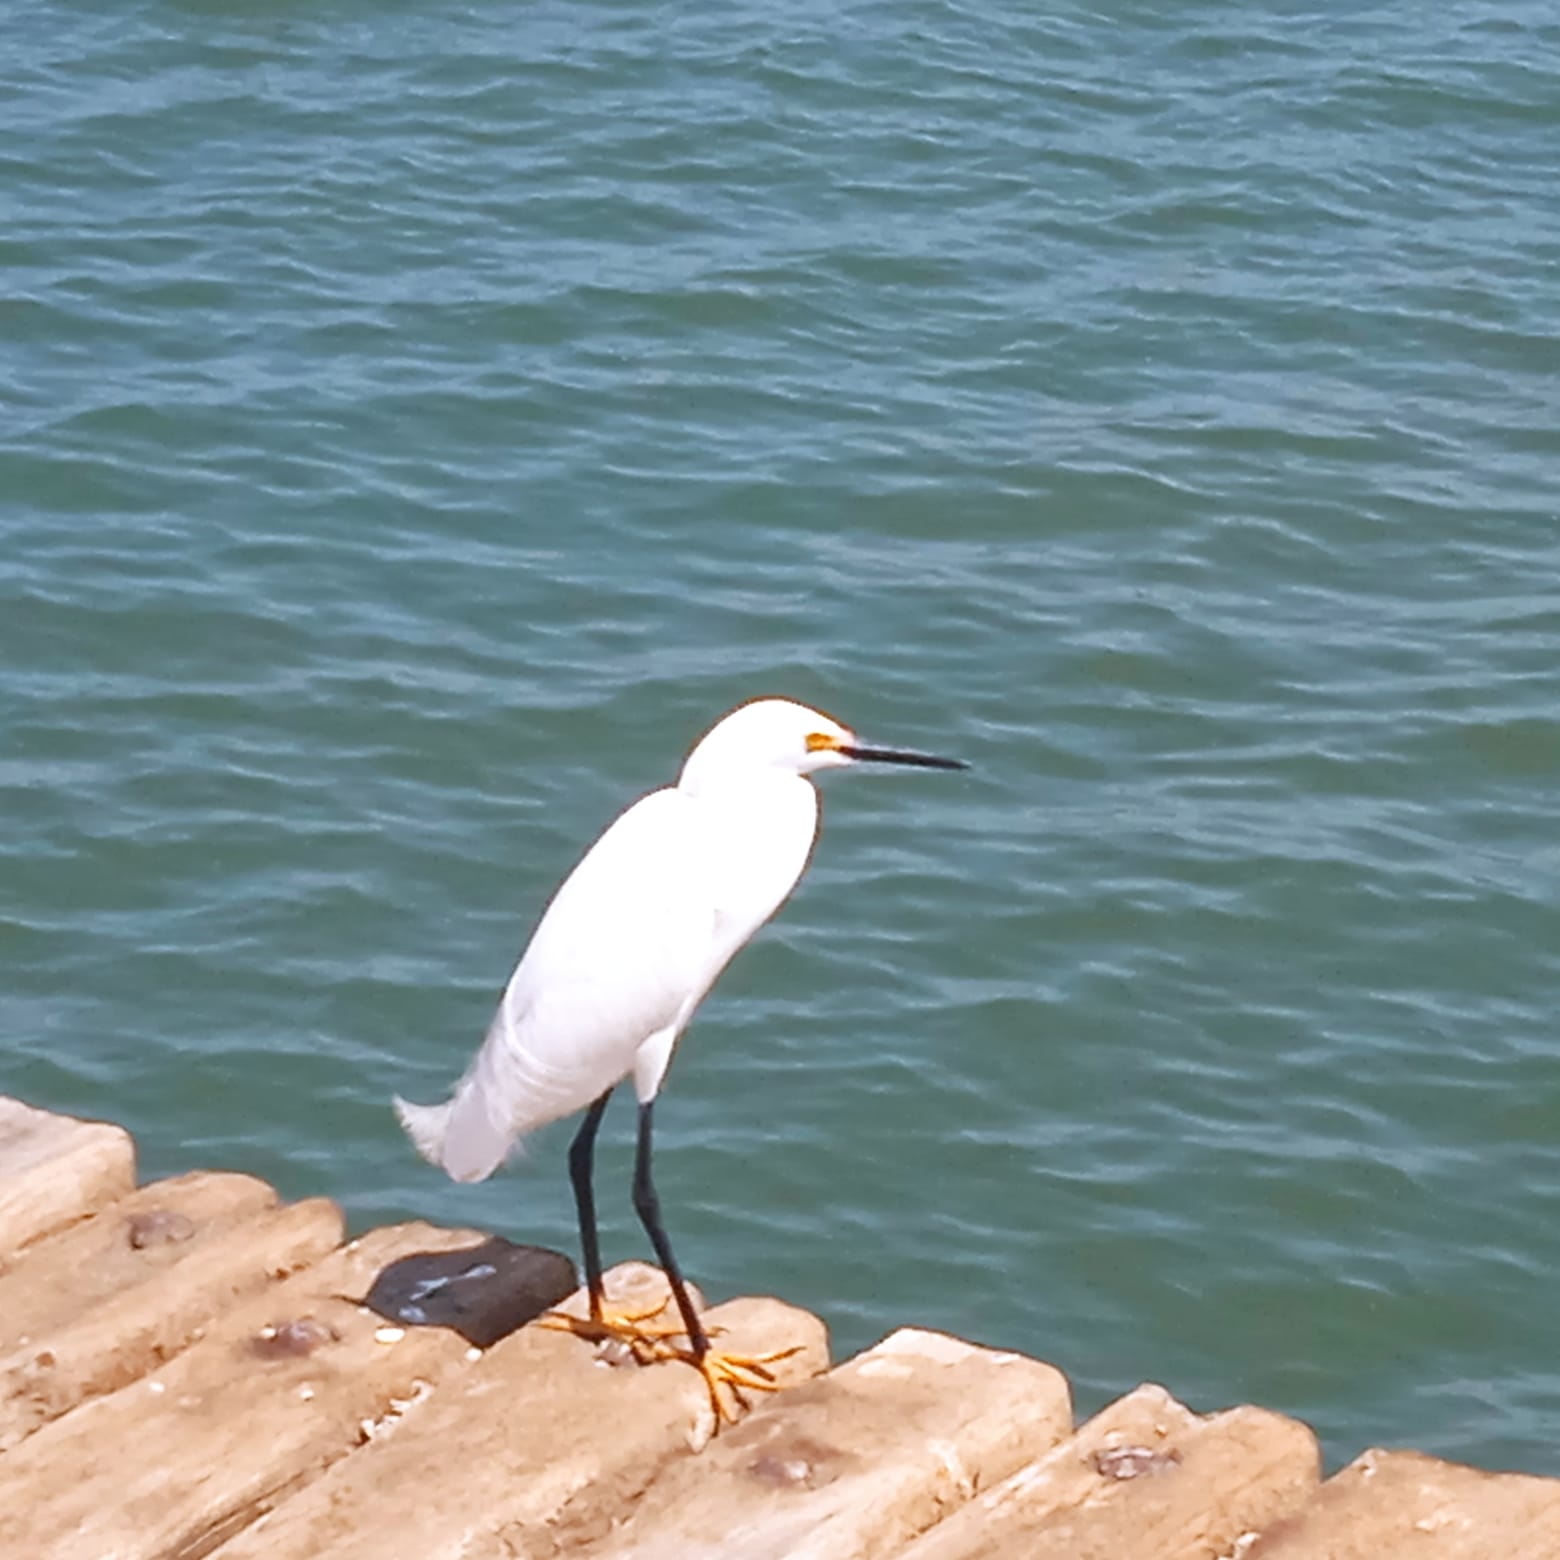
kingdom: Animalia
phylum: Chordata
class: Aves
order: Pelecaniformes
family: Ardeidae
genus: Egretta
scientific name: Egretta thula
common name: Snowy egret
